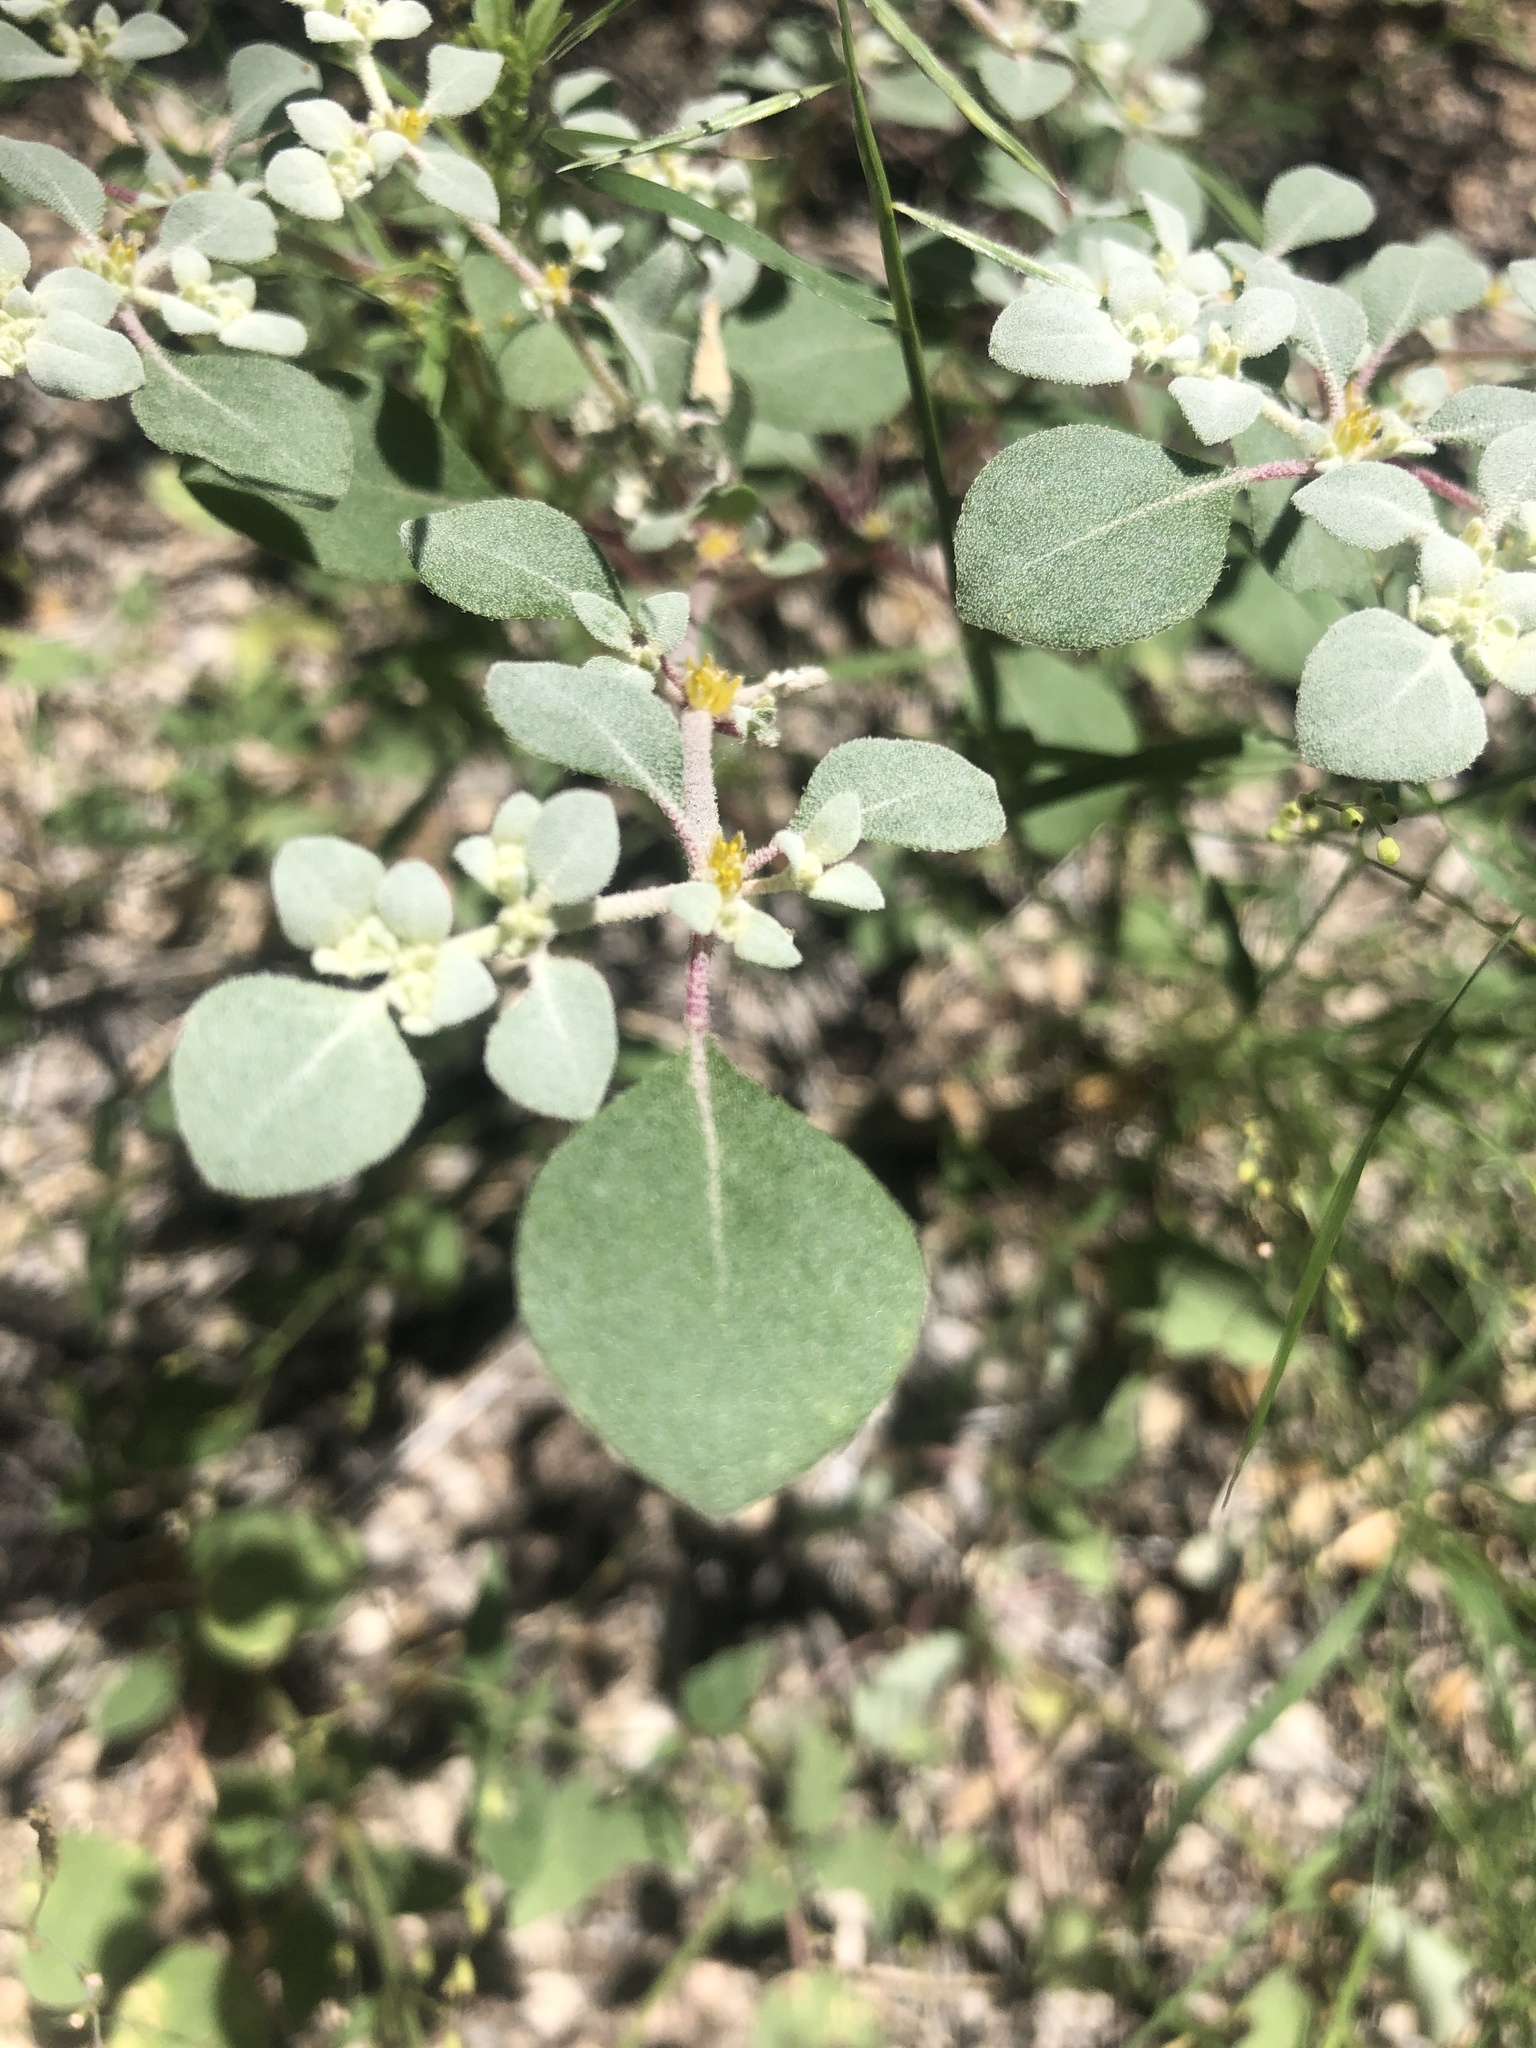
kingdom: Plantae
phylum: Tracheophyta
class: Magnoliopsida
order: Caryophyllales
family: Amaranthaceae
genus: Tidestromia
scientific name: Tidestromia lanuginosa
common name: Woolly tidestromia
